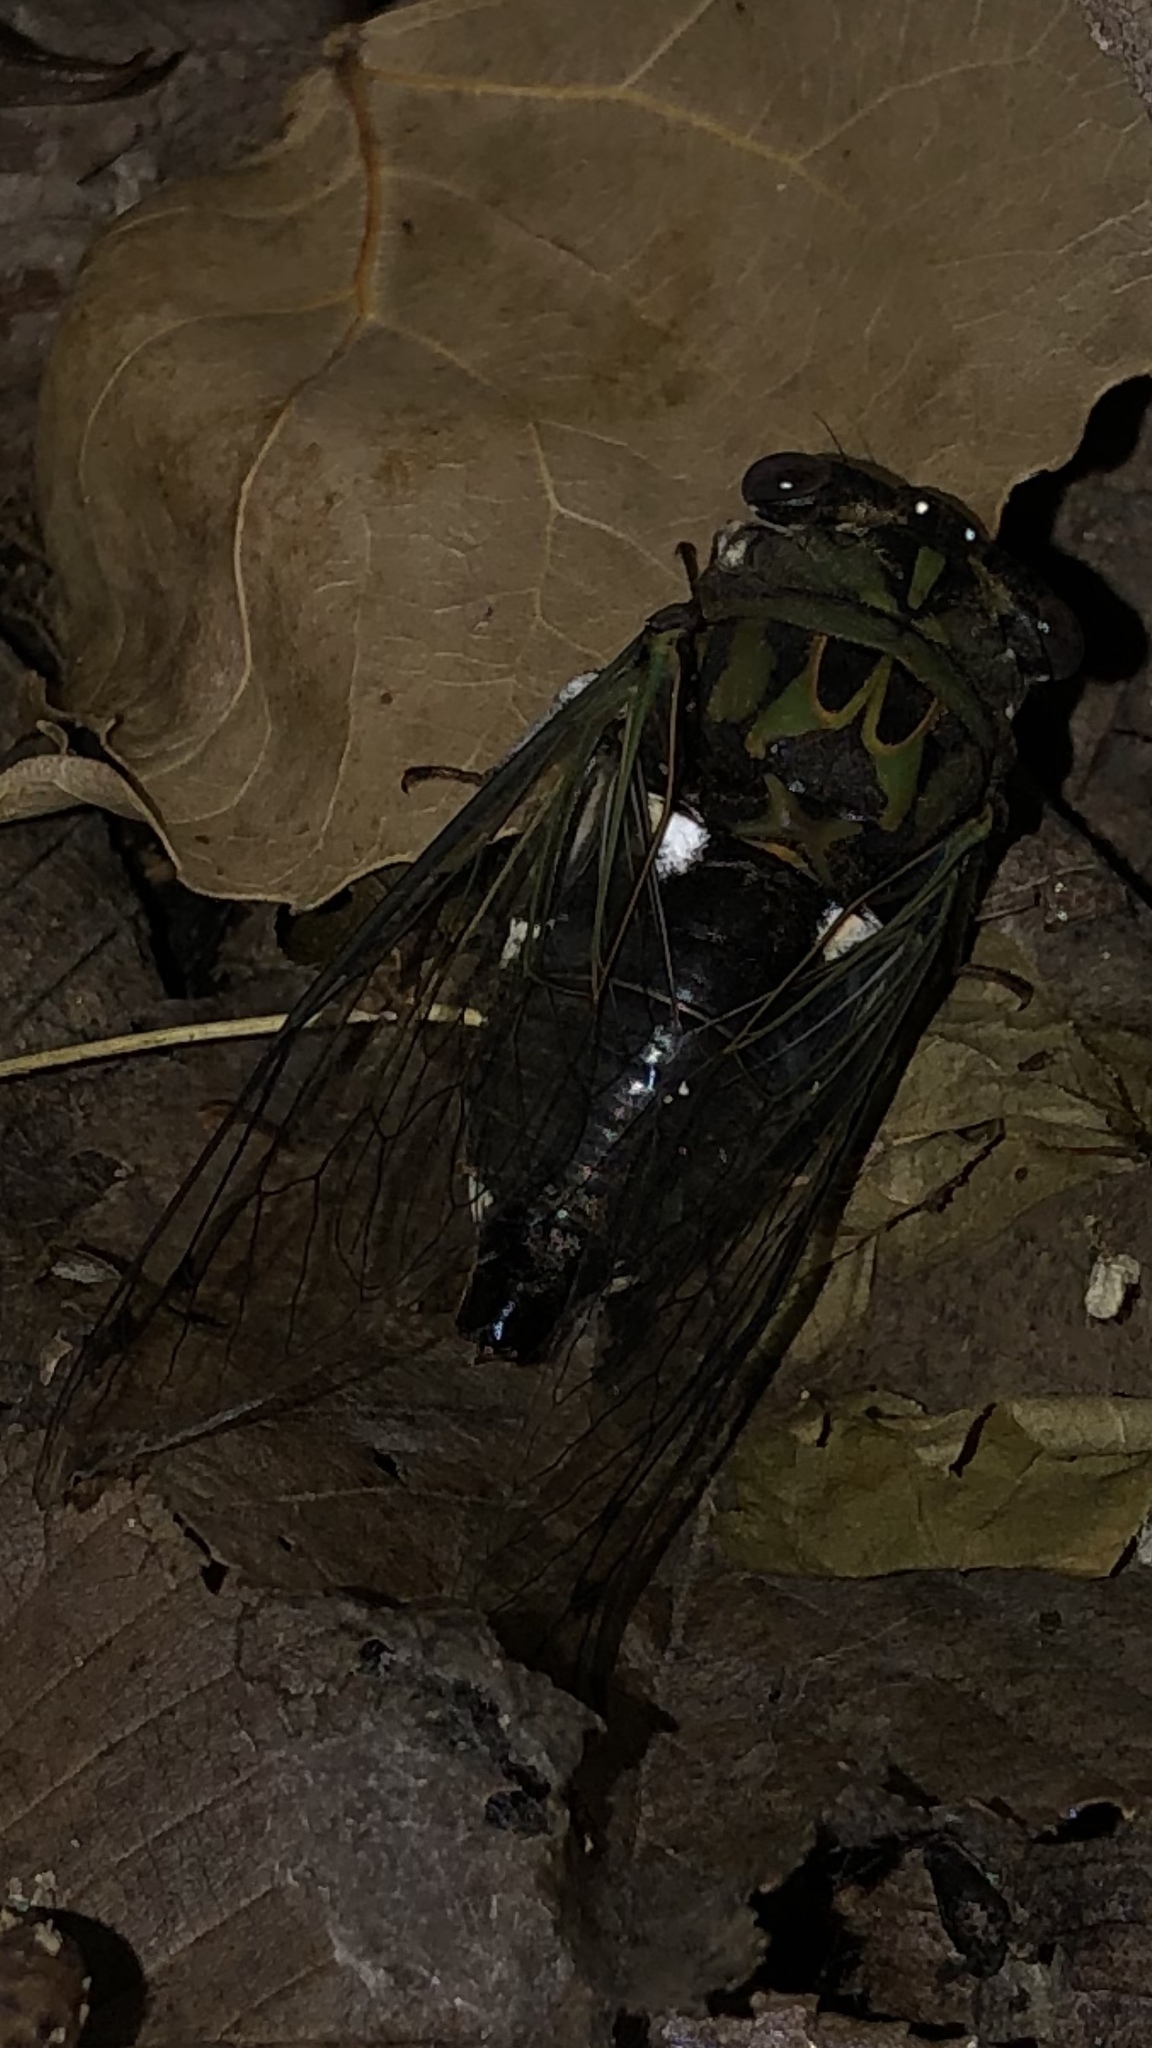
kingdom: Animalia
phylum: Arthropoda
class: Insecta
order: Hemiptera
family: Cicadidae
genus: Neotibicen
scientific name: Neotibicen pruinosus
